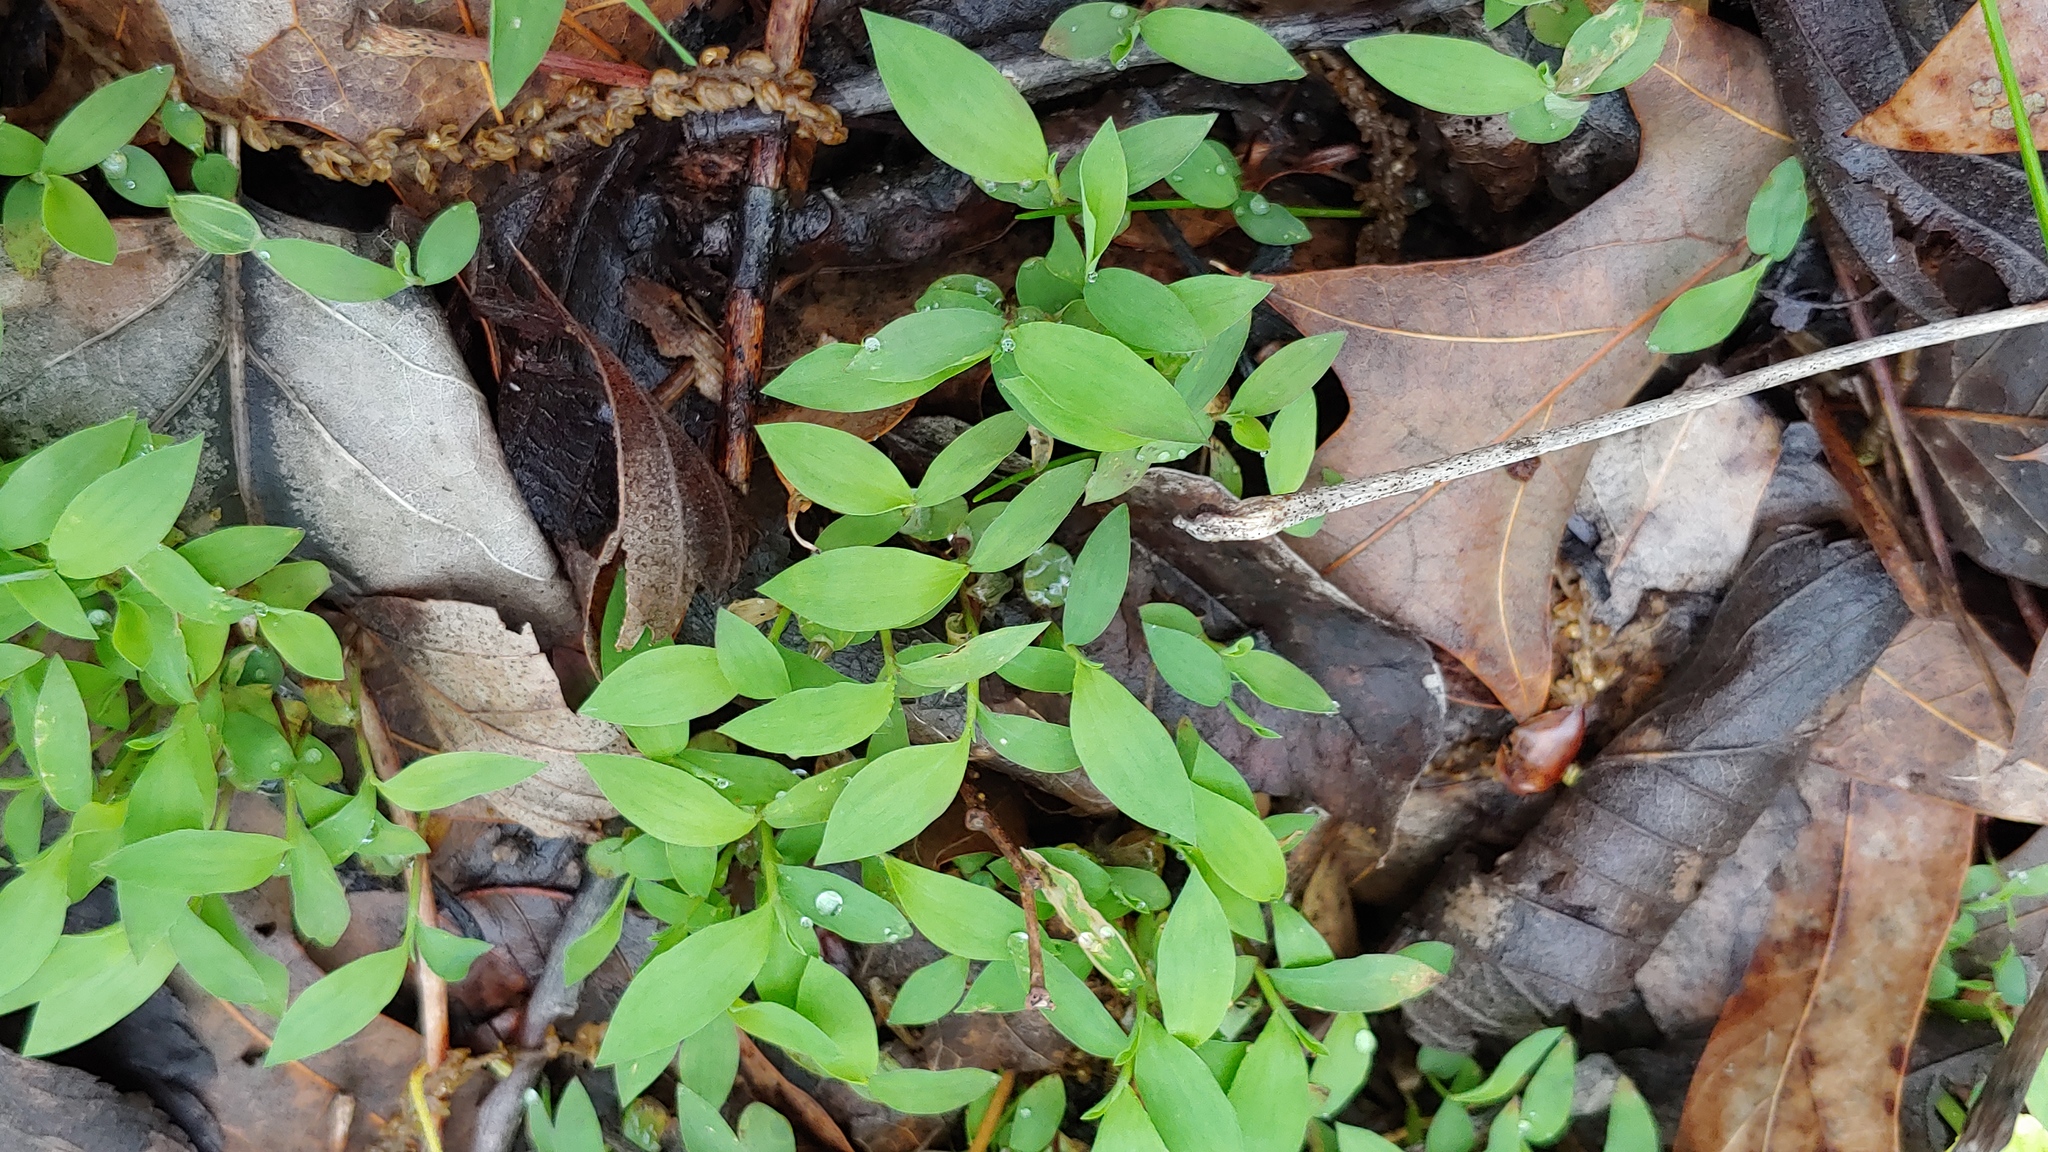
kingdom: Plantae
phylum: Tracheophyta
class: Liliopsida
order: Poales
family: Poaceae
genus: Microstegium
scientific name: Microstegium vimineum
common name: Japanese stiltgrass
